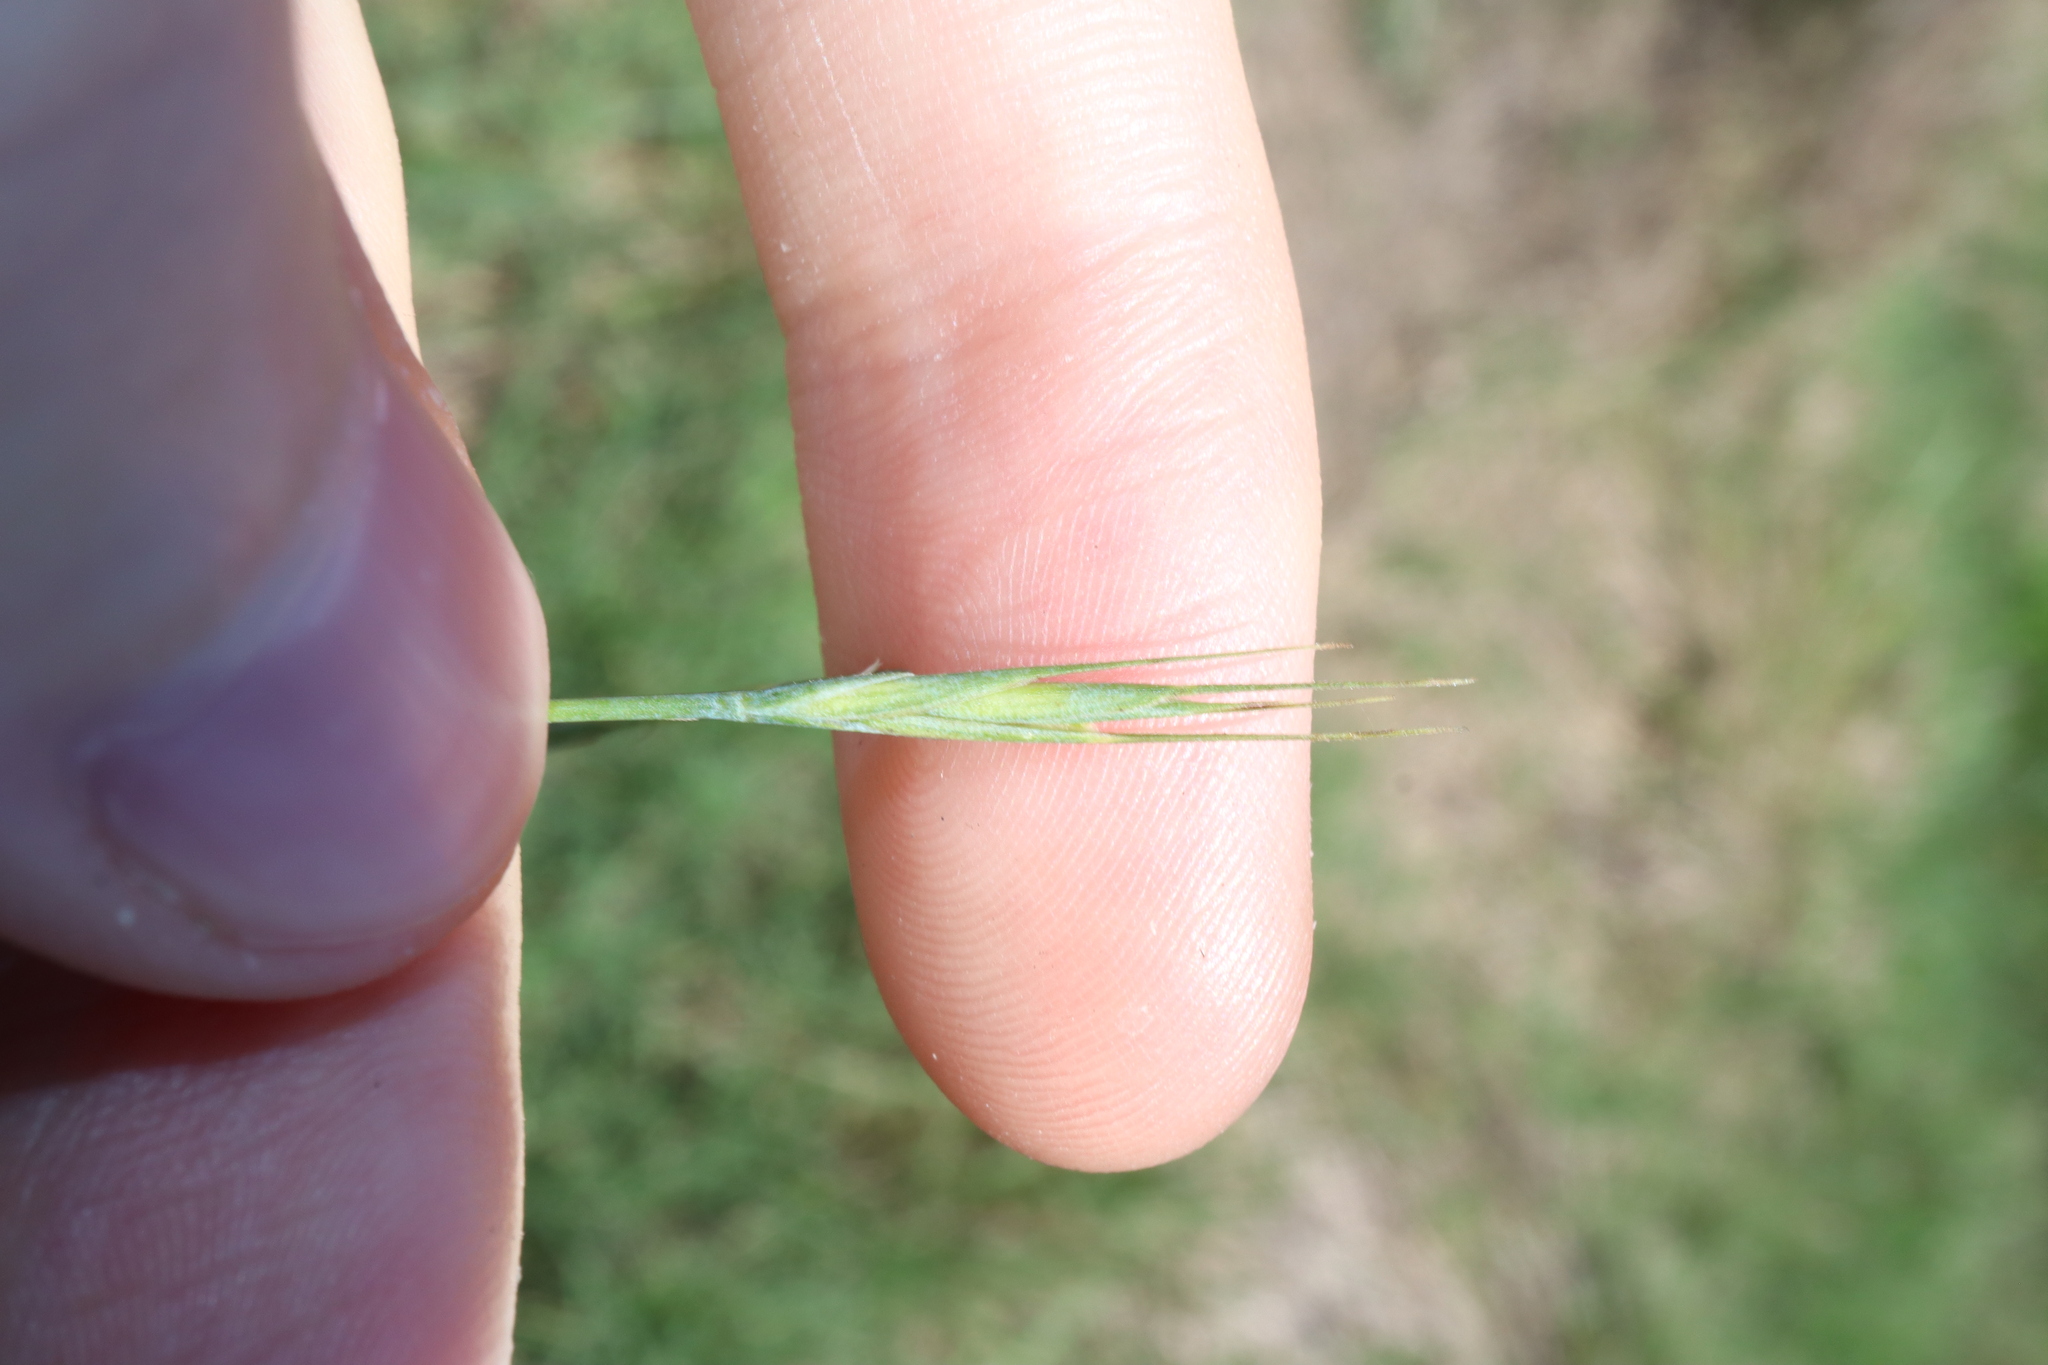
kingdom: Plantae
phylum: Tracheophyta
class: Liliopsida
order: Poales
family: Poaceae
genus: Anthosachne
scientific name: Anthosachne scabra
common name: Common wheatgrass
